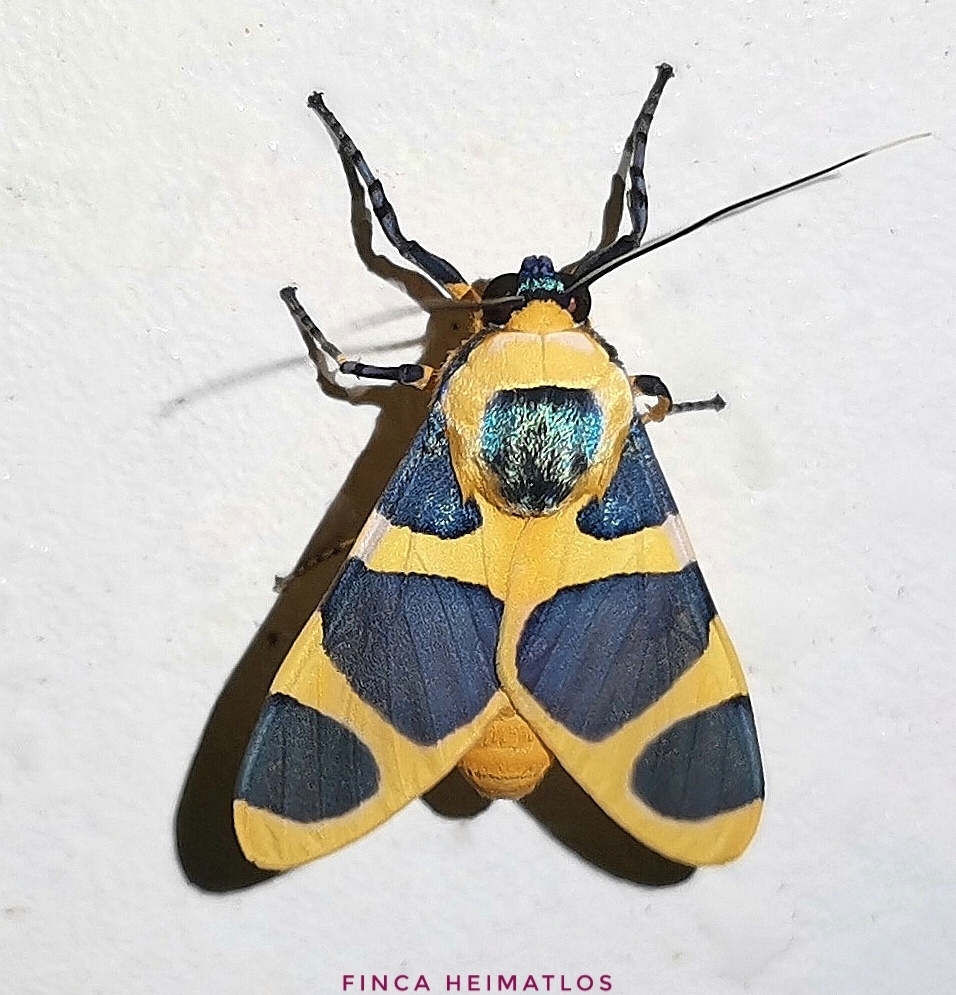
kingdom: Animalia
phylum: Arthropoda
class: Insecta
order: Lepidoptera
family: Erebidae
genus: Emurena
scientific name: Emurena lurida
